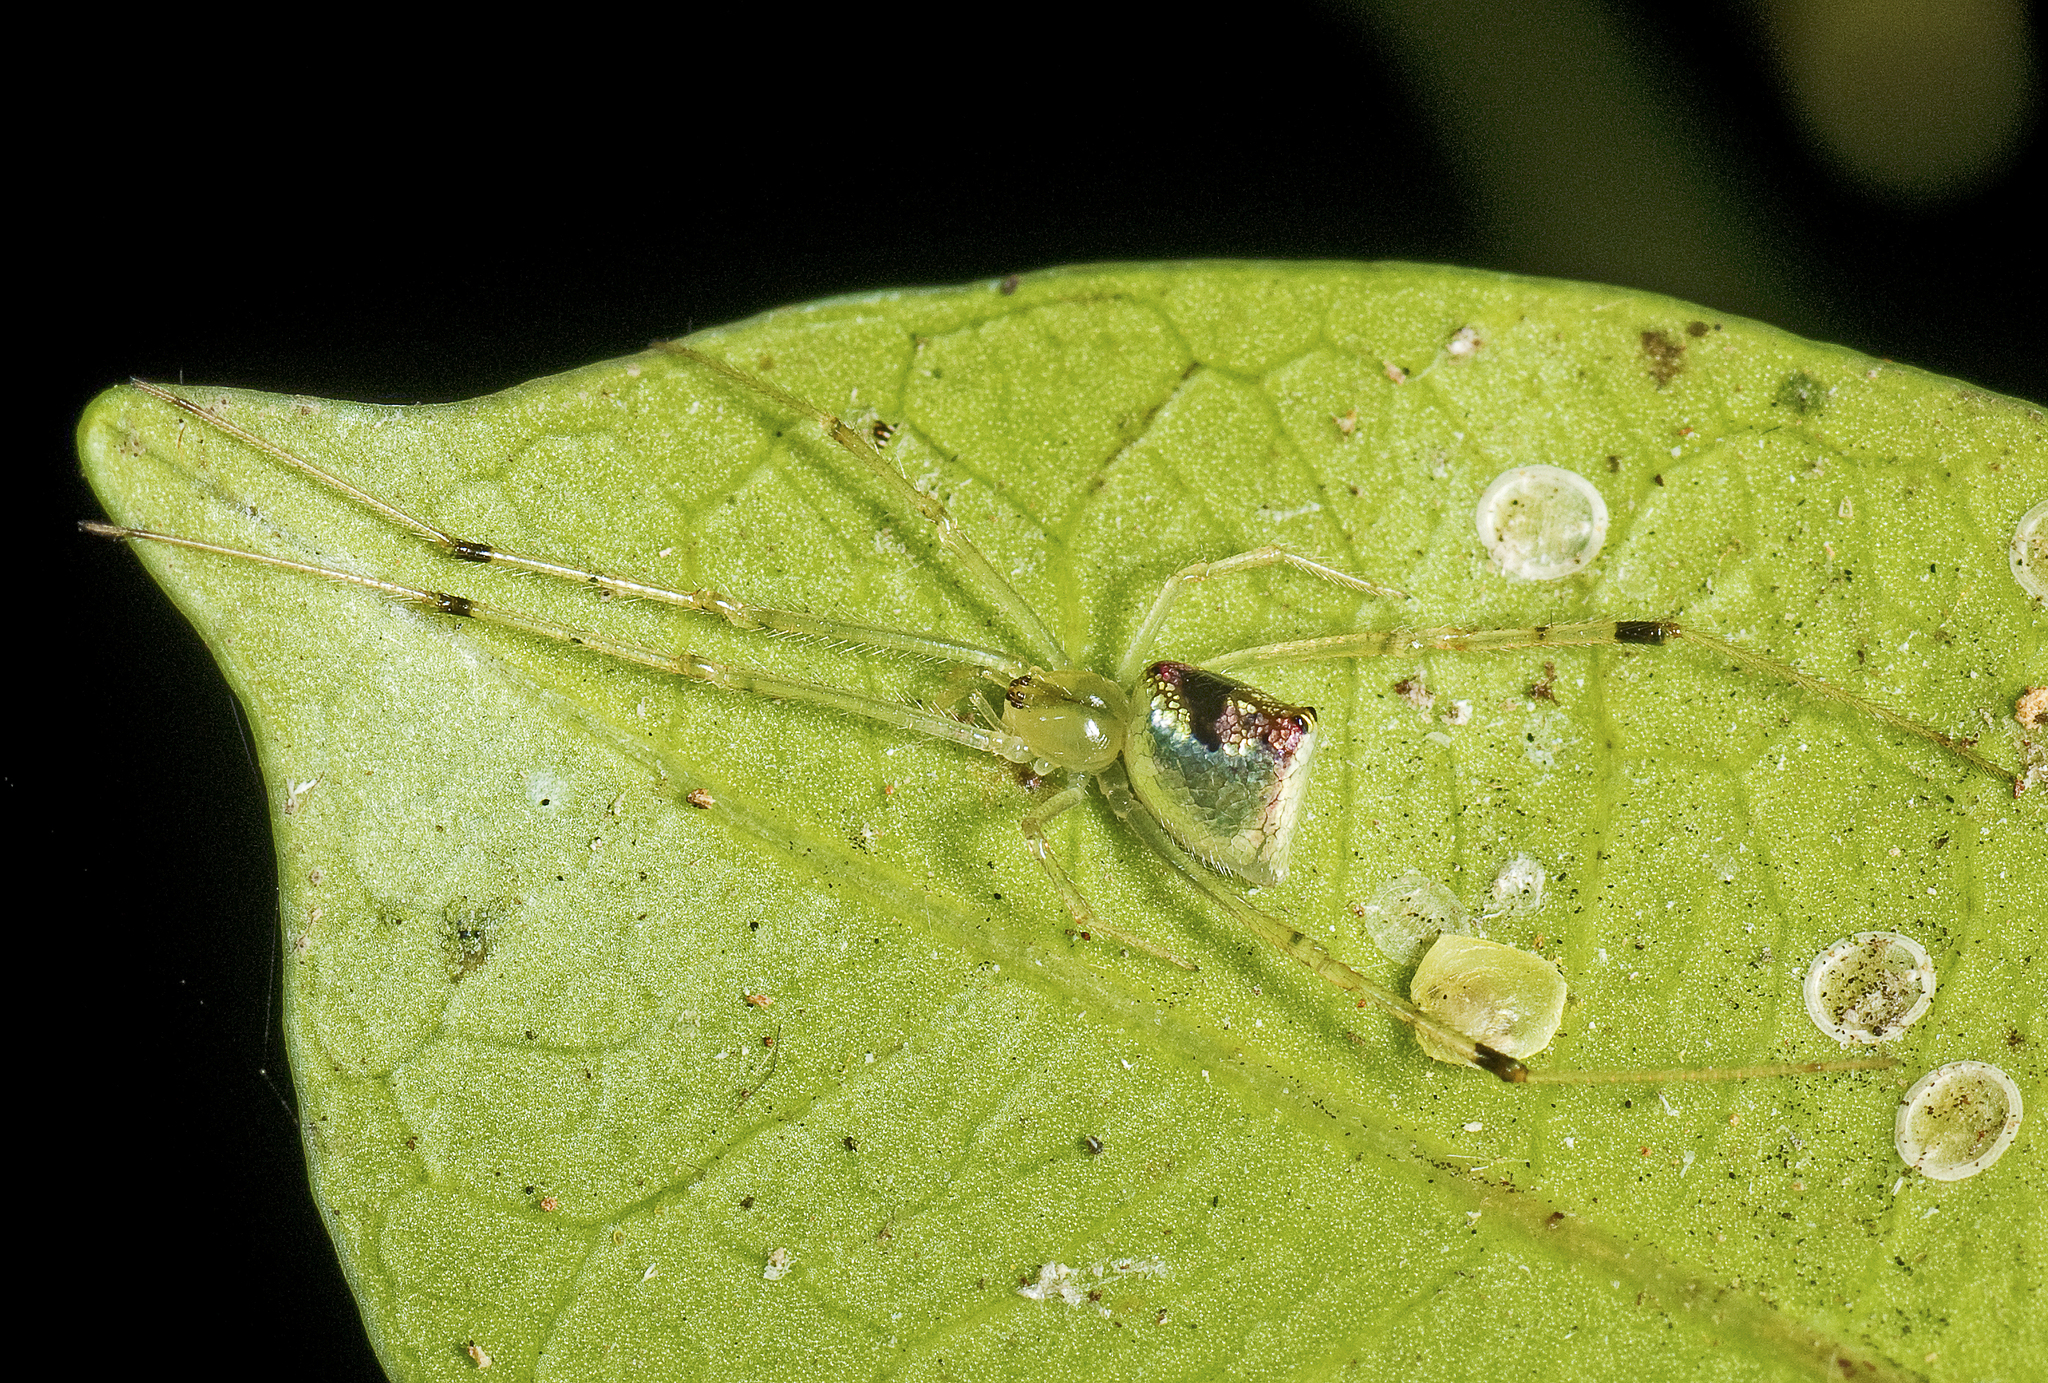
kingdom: Animalia
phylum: Arthropoda
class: Arachnida
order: Araneae
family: Theridiidae
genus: Thwaitesia
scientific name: Thwaitesia nigronodosa
